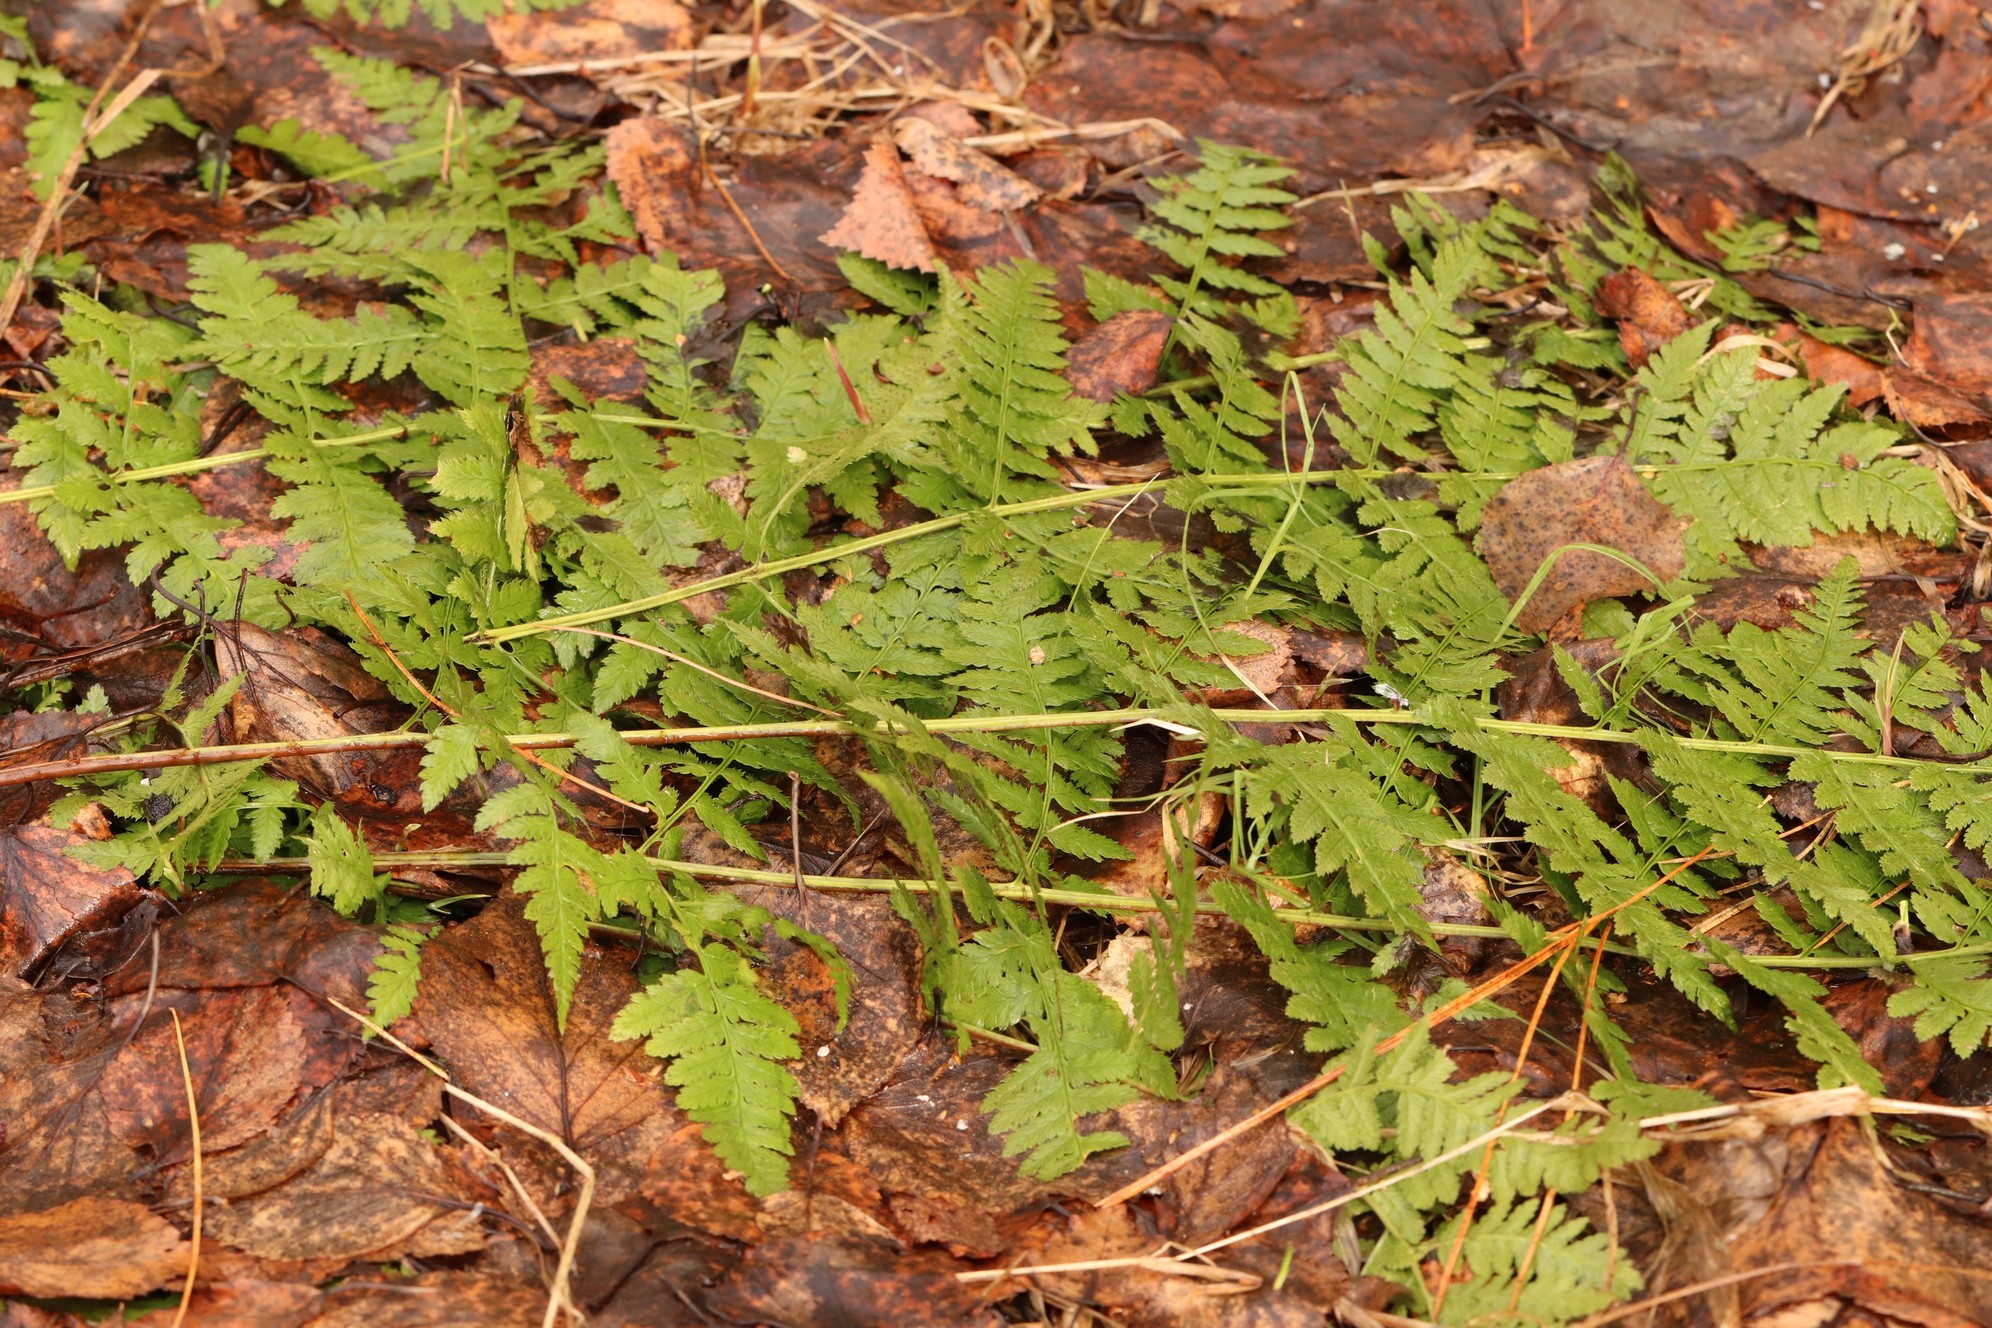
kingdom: Plantae
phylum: Tracheophyta
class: Polypodiopsida
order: Polypodiales
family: Dryopteridaceae
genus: Dryopteris
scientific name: Dryopteris carthusiana
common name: Narrow buckler-fern
